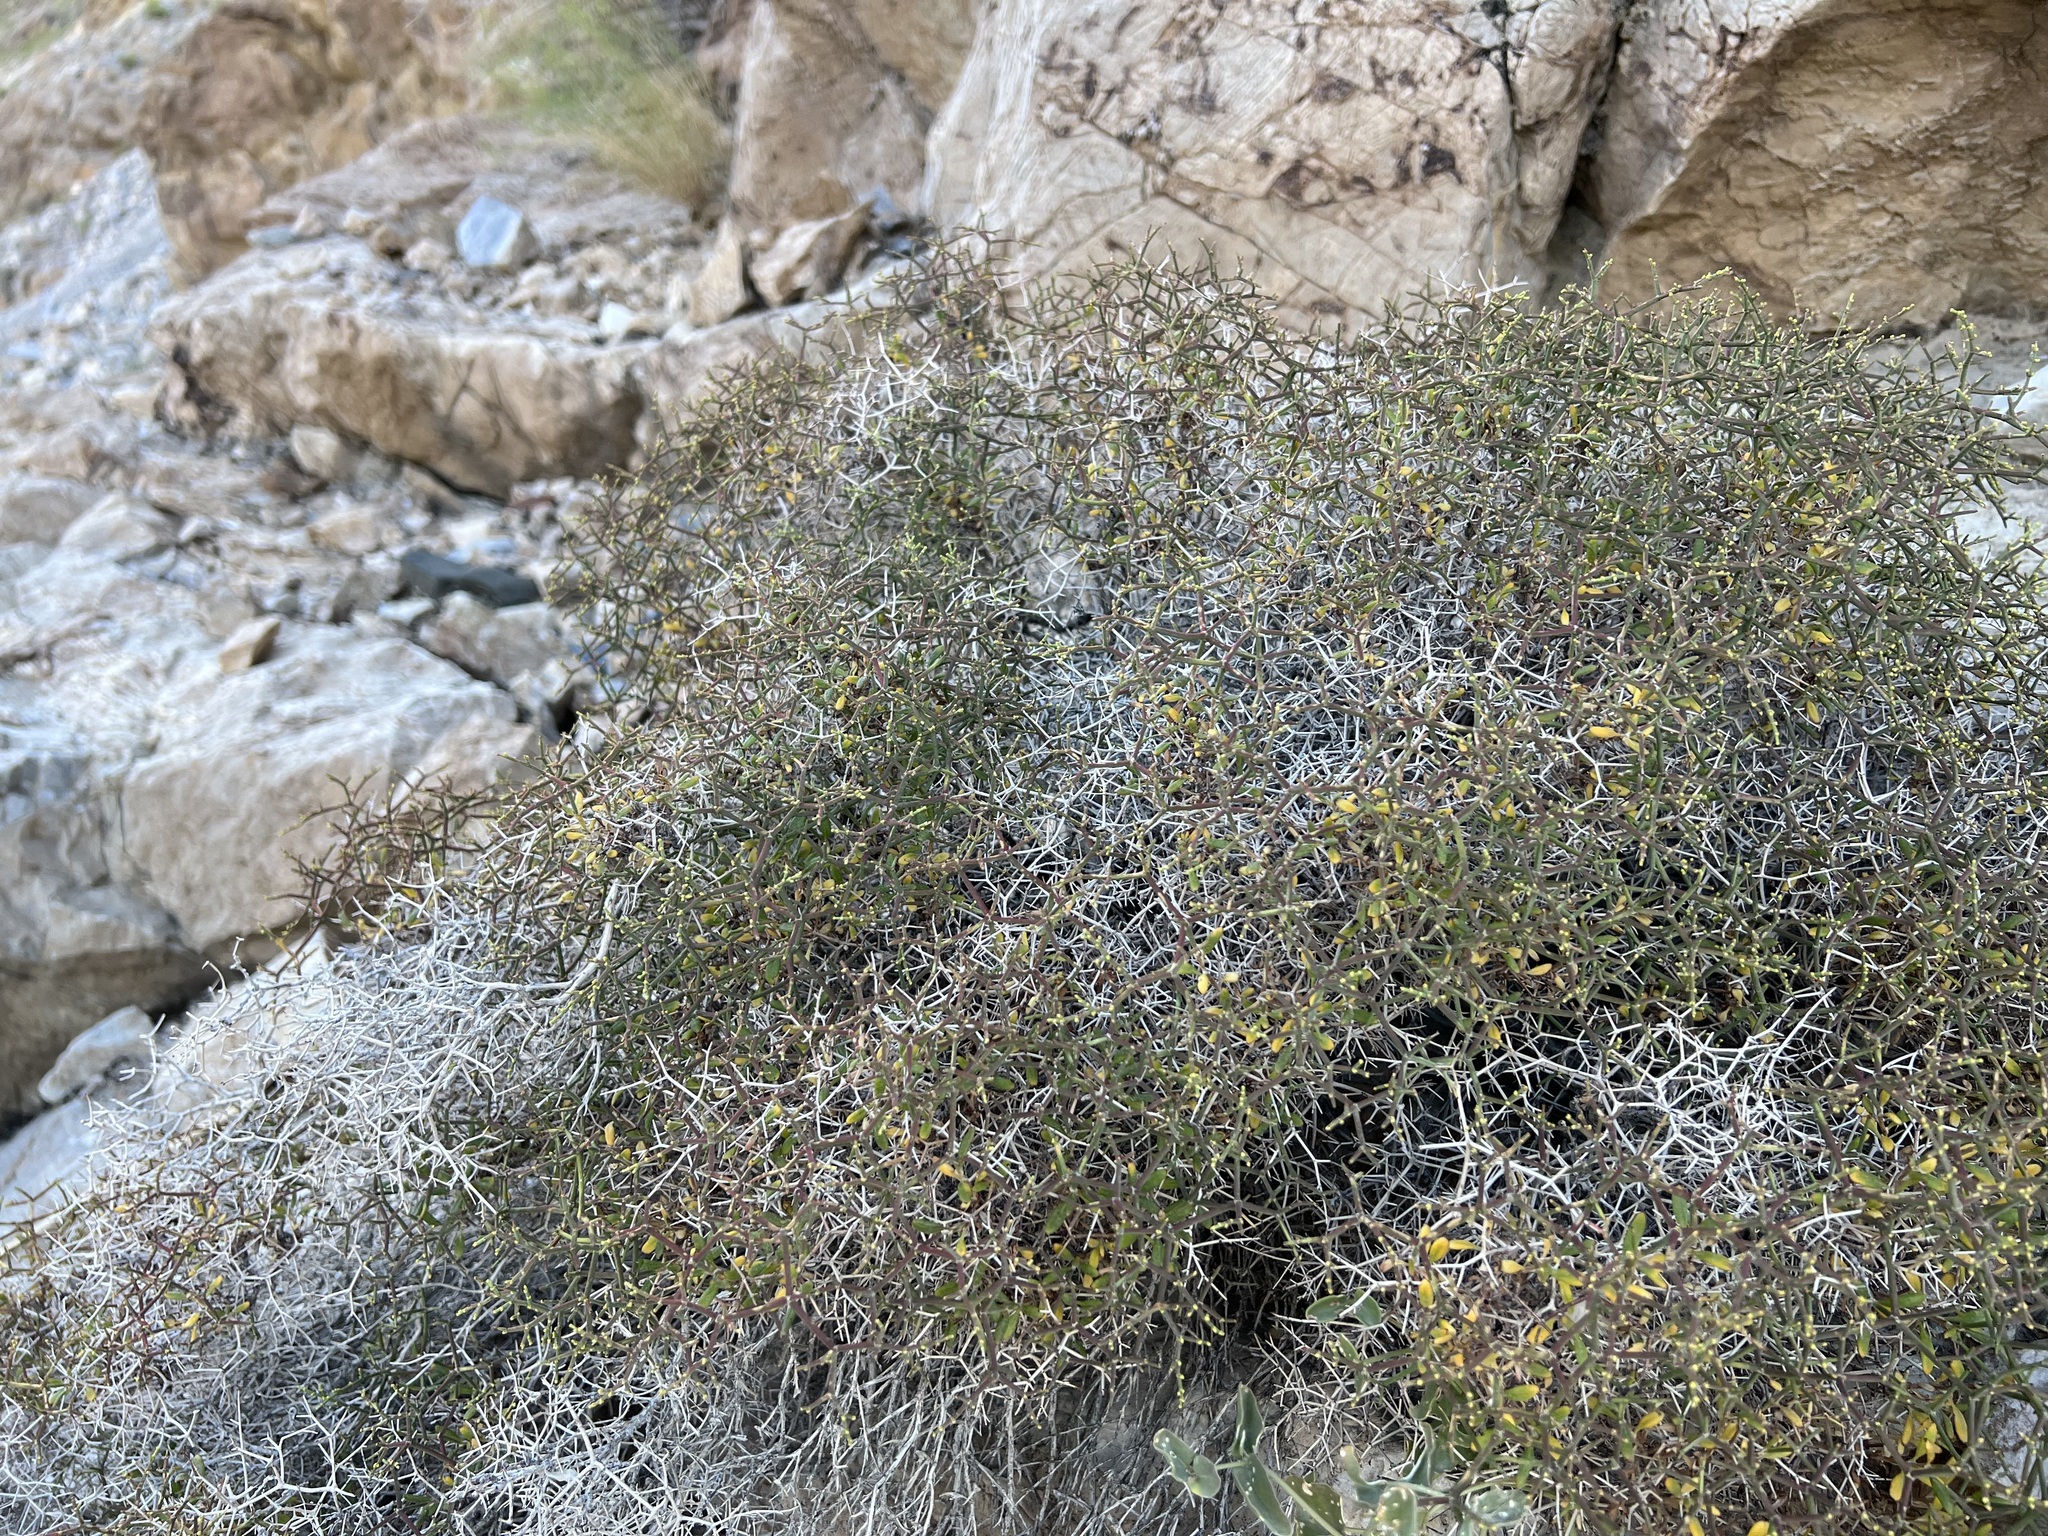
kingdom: Plantae
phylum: Tracheophyta
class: Magnoliopsida
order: Caryophyllales
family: Polygonaceae
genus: Eriogonum
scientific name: Eriogonum heermannii
